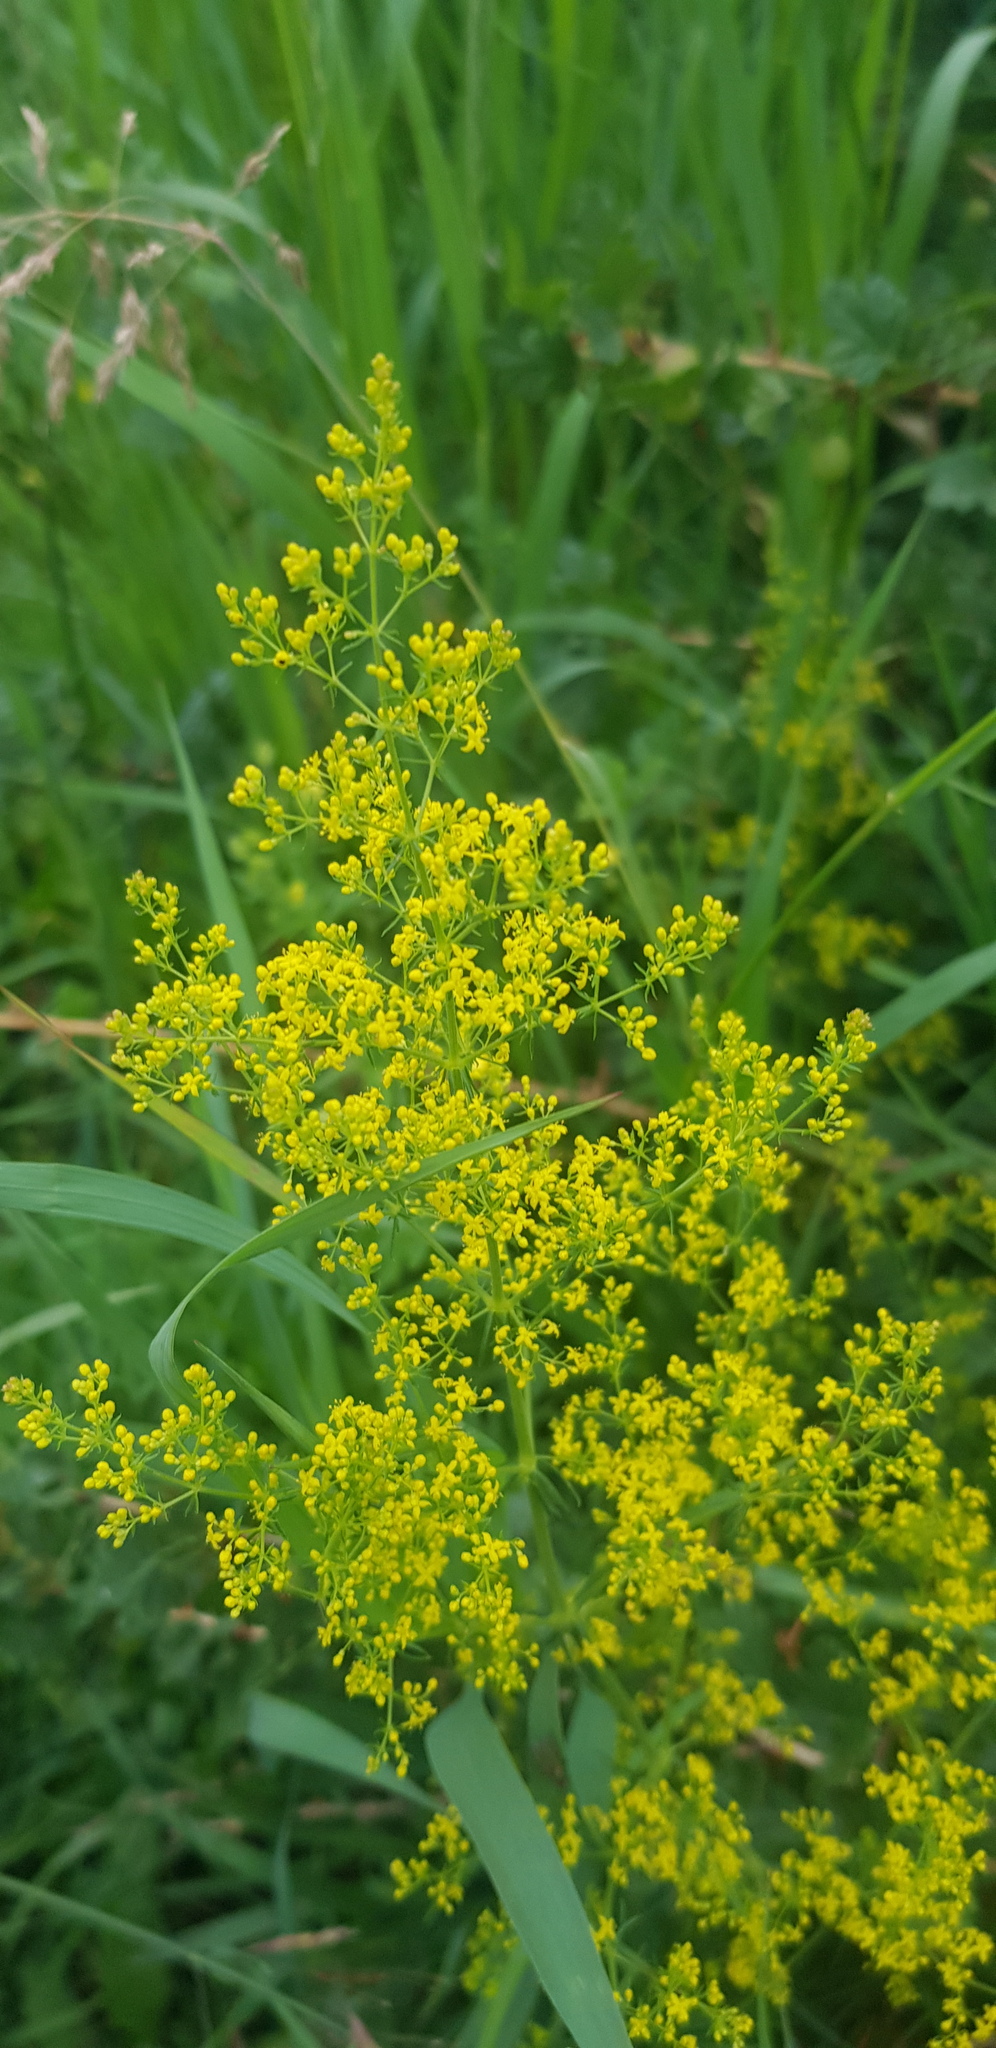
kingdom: Plantae
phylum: Tracheophyta
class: Magnoliopsida
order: Gentianales
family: Rubiaceae
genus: Galium
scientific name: Galium verum
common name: Lady's bedstraw
